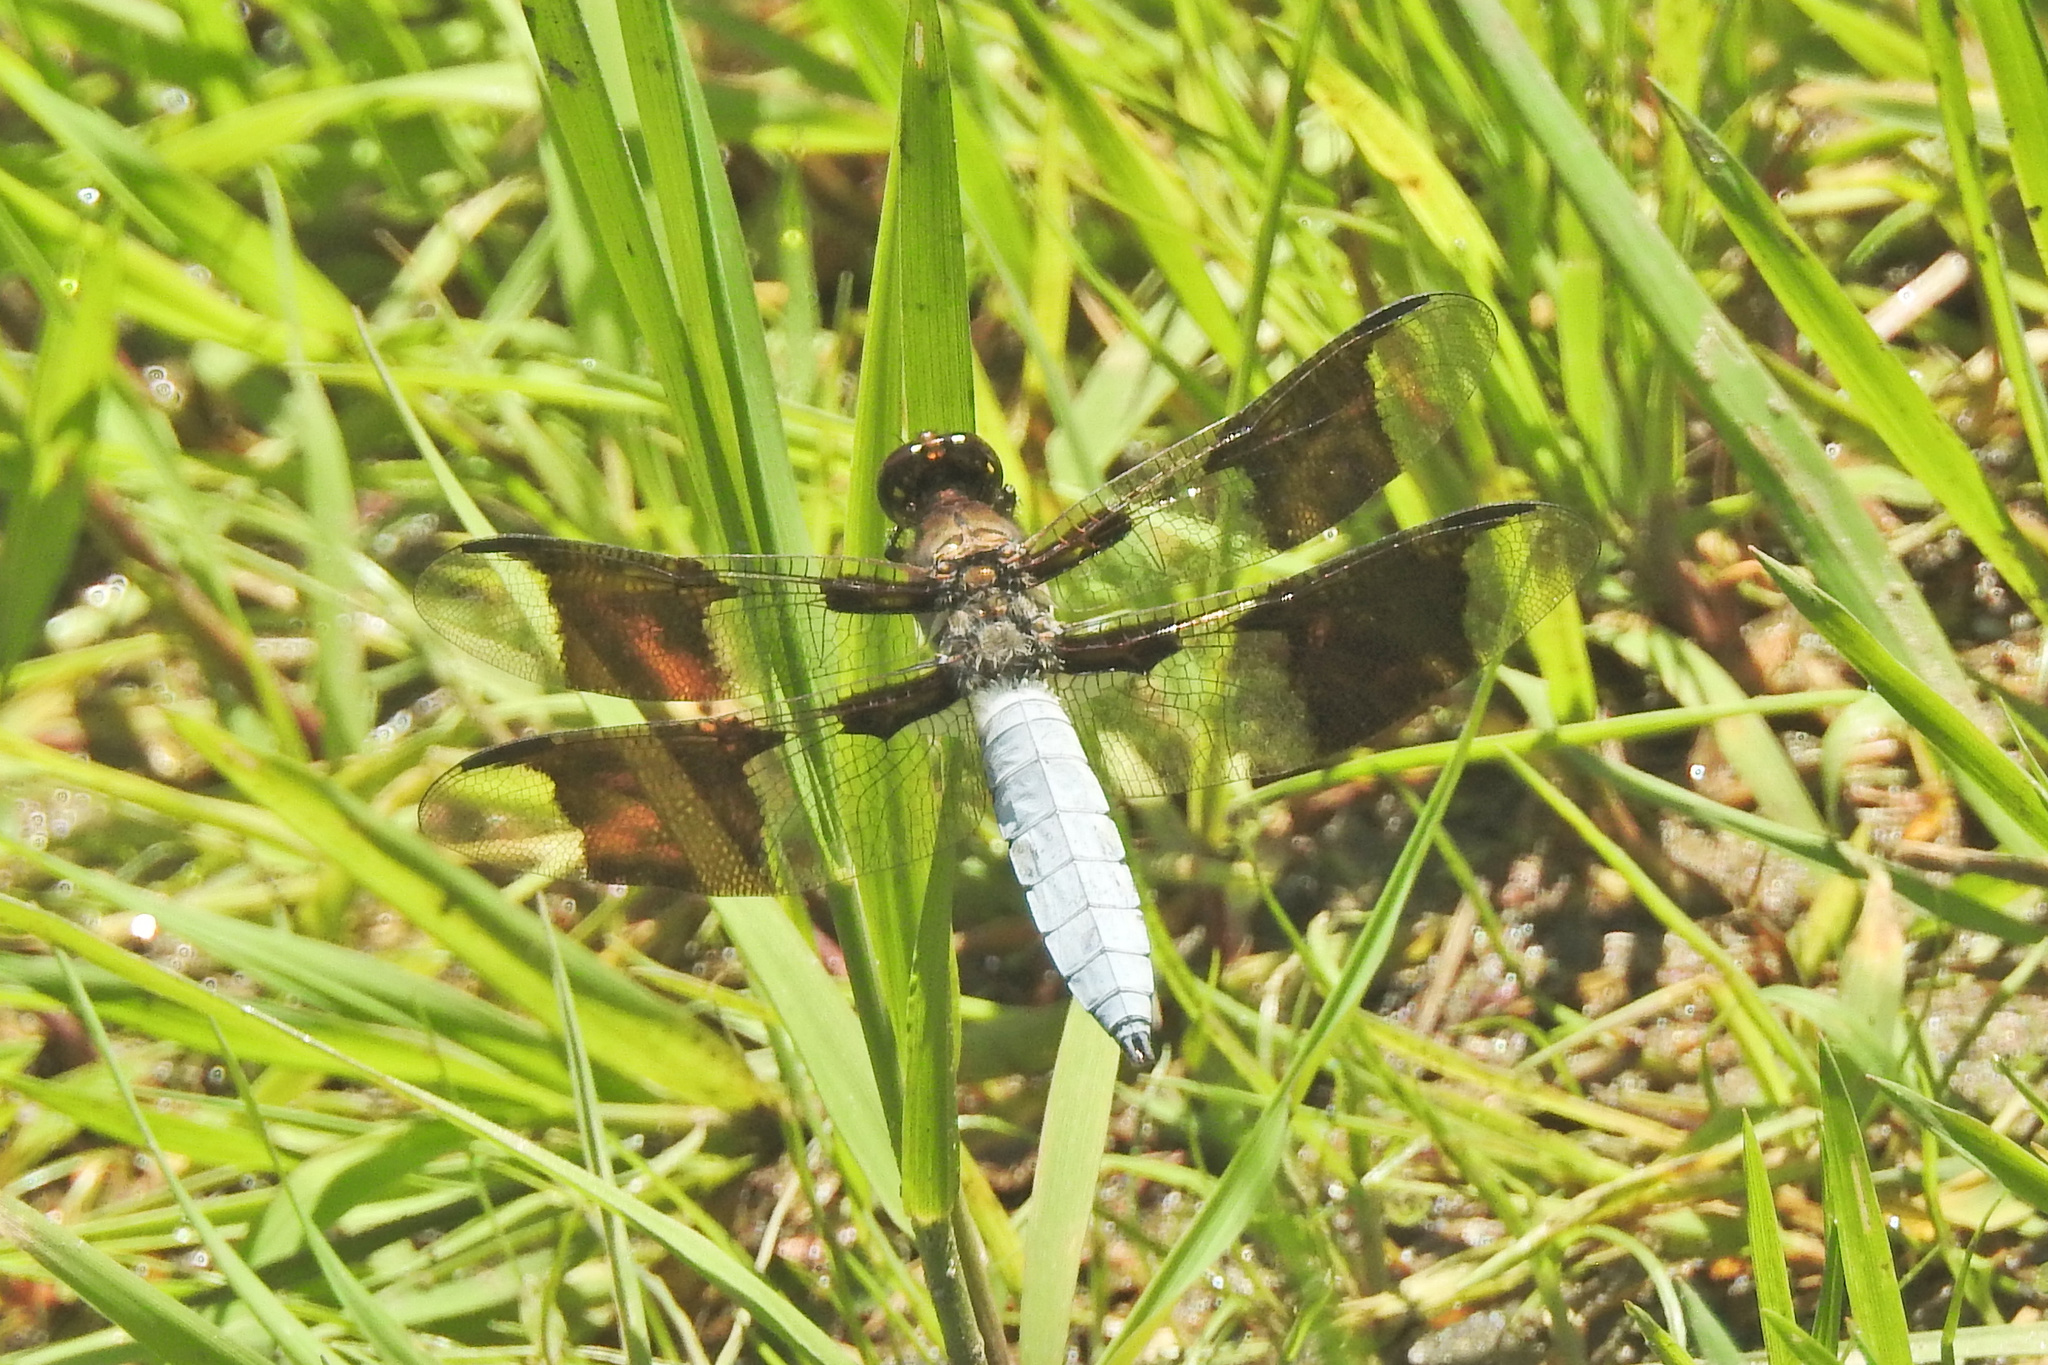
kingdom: Animalia
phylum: Arthropoda
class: Insecta
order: Odonata
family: Libellulidae
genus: Plathemis
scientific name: Plathemis lydia
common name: Common whitetail
